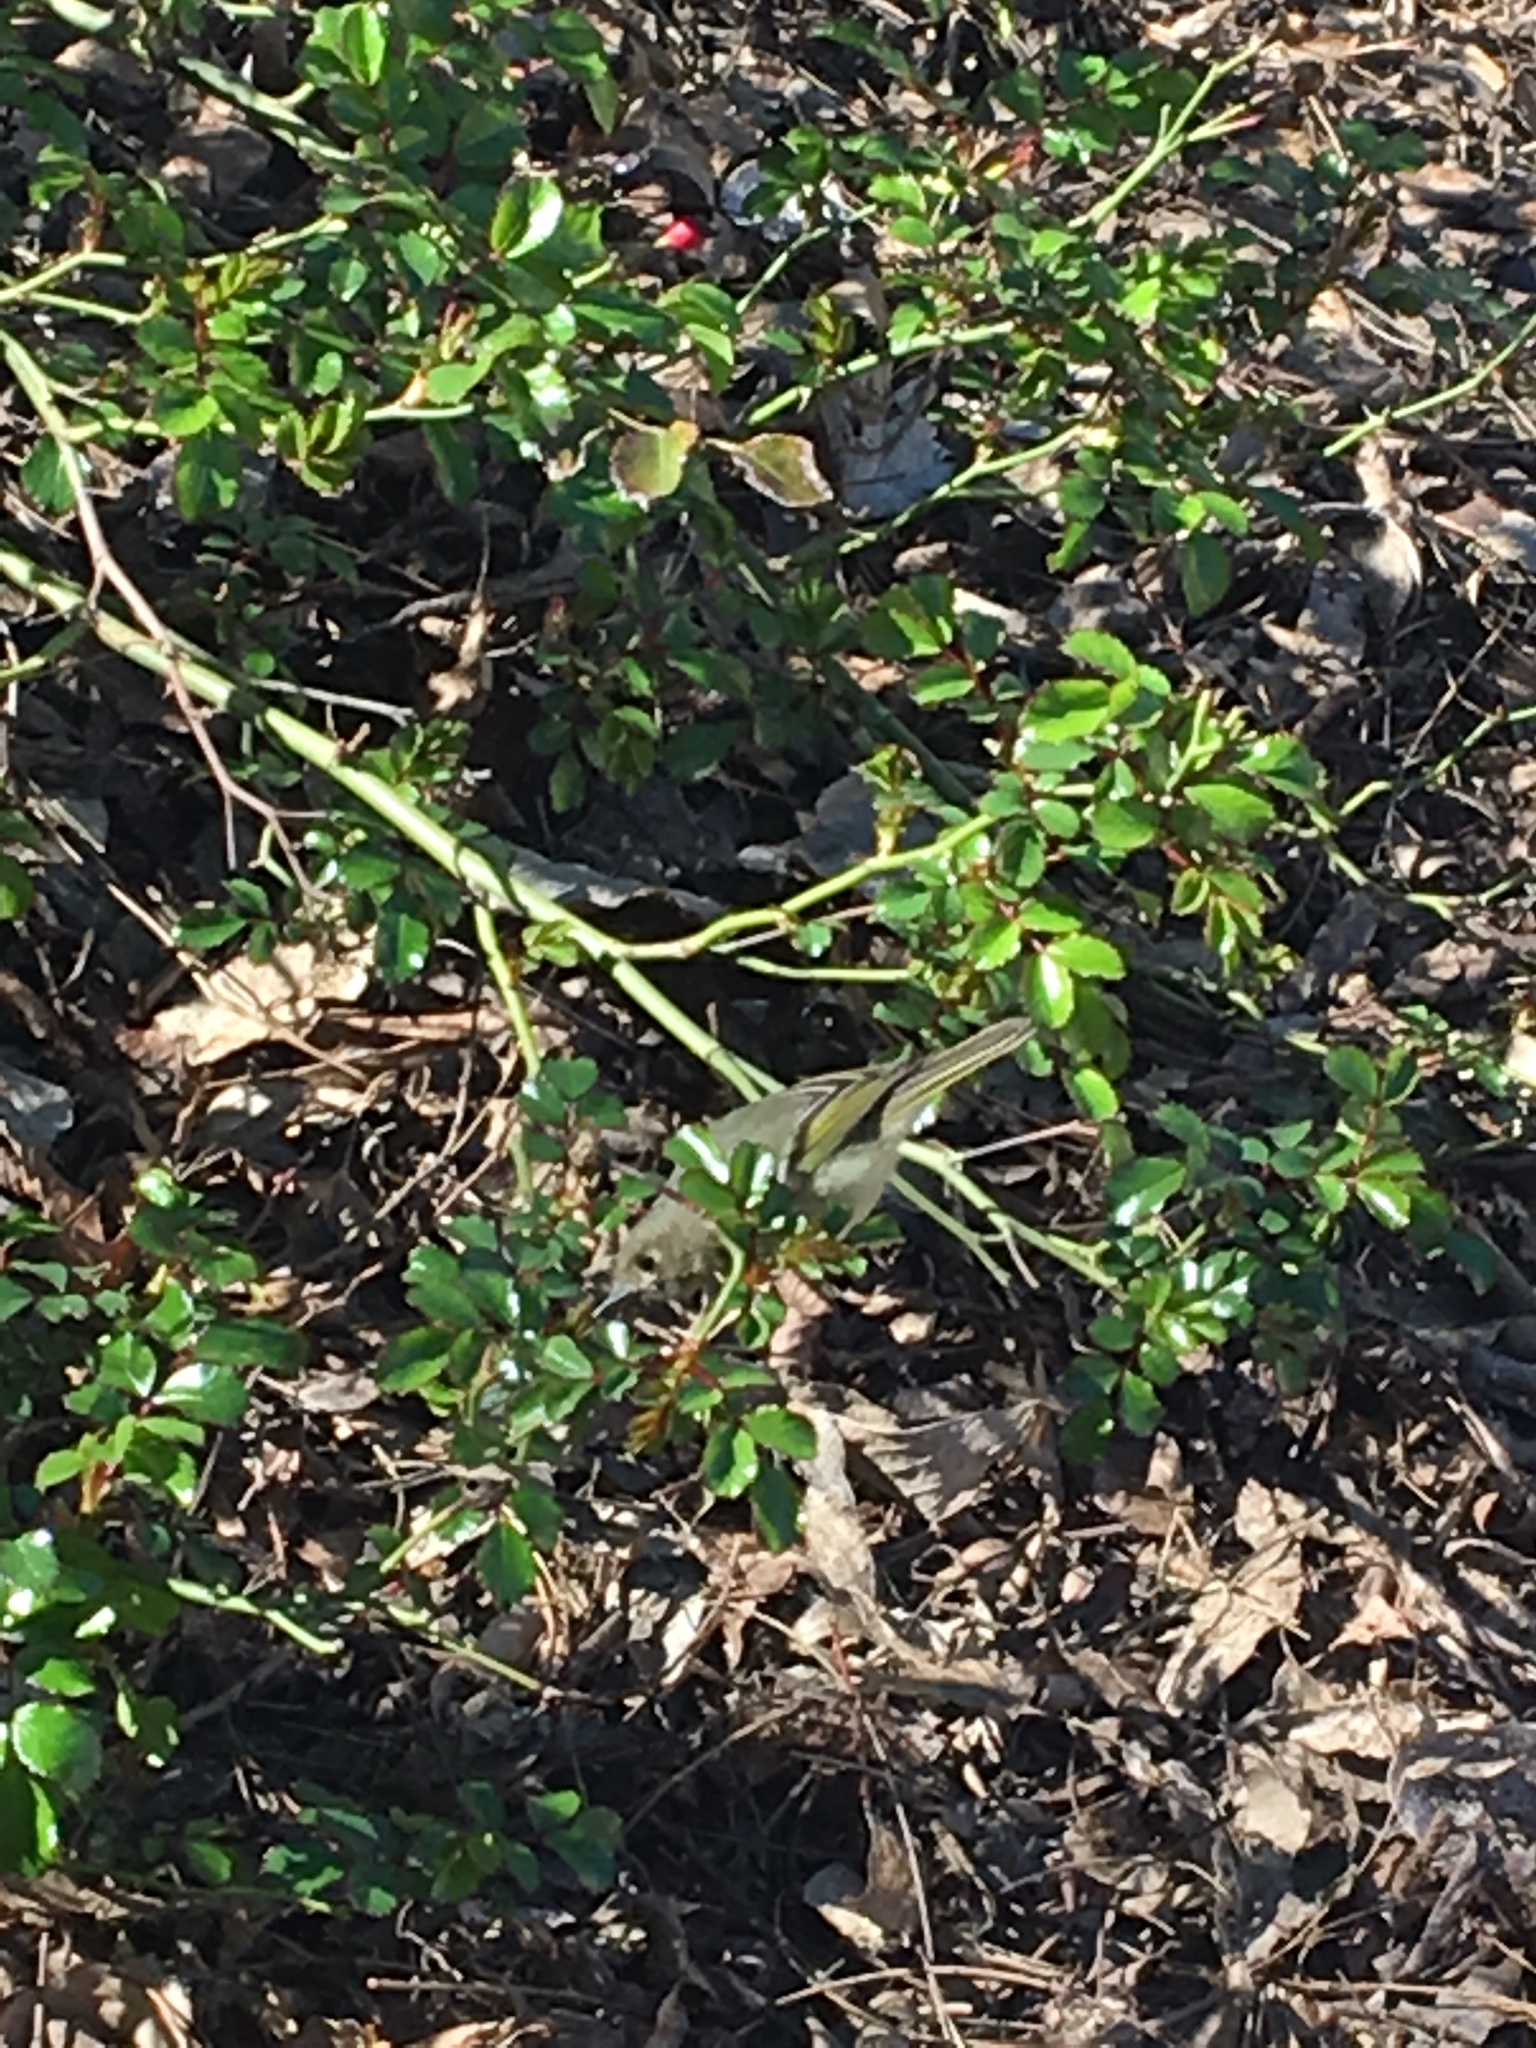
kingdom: Animalia
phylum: Chordata
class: Aves
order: Passeriformes
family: Regulidae
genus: Regulus
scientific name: Regulus calendula
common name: Ruby-crowned kinglet
